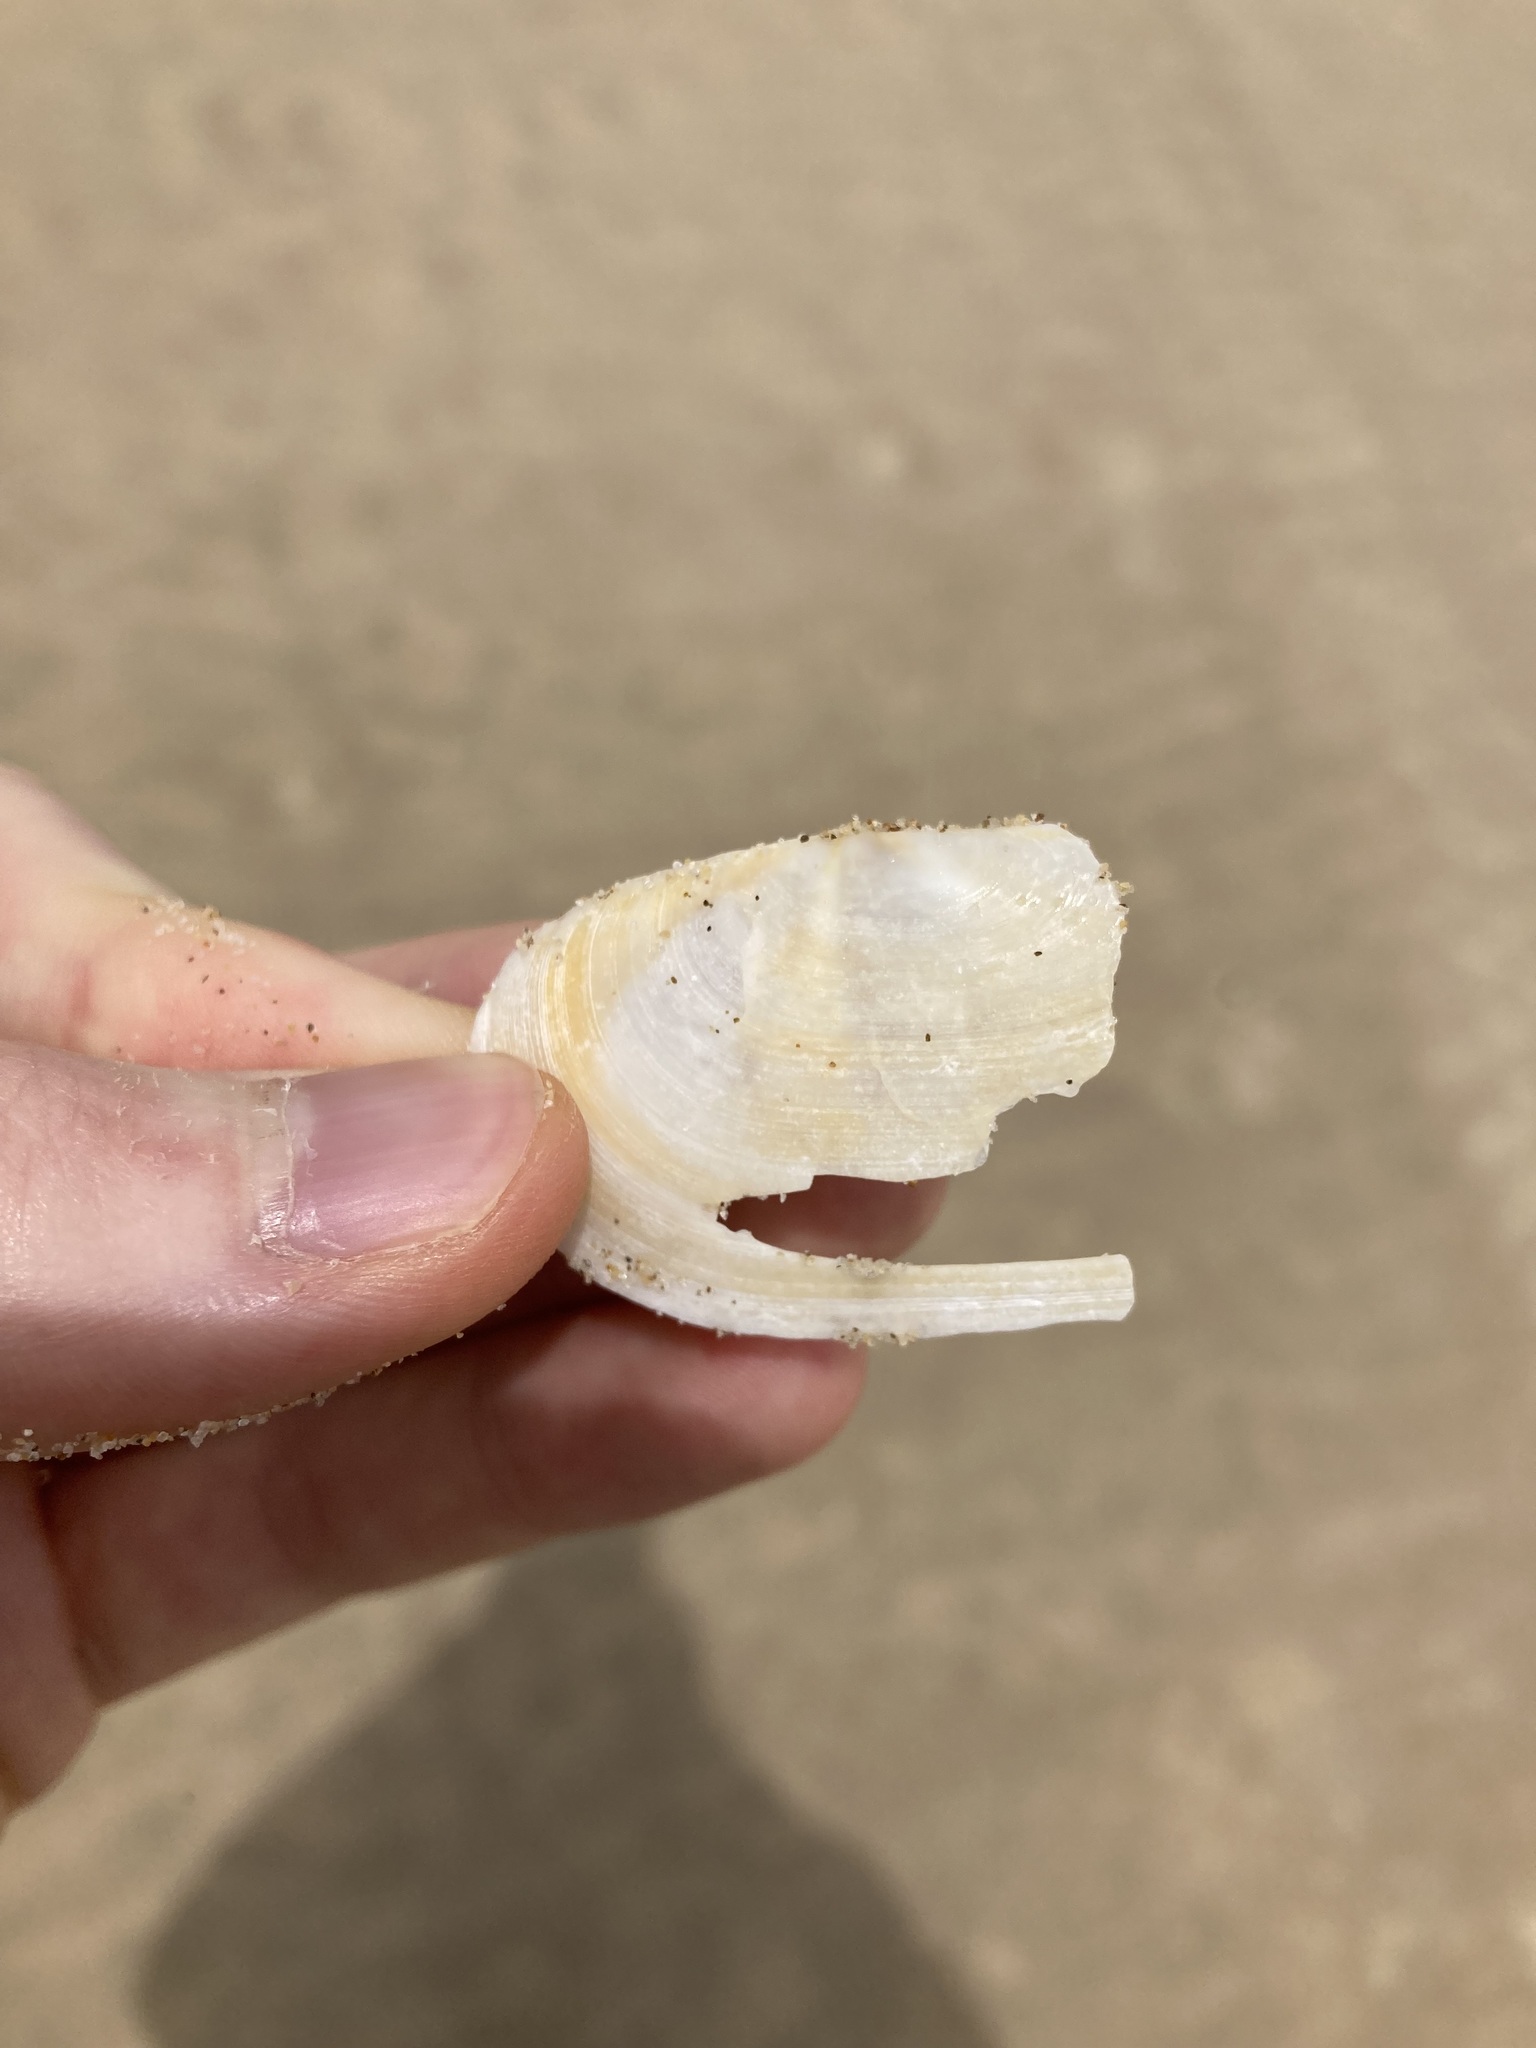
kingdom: Animalia
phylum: Mollusca
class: Bivalvia
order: Venerida
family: Mactridae
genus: Zenatina
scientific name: Zenatina victoriae
